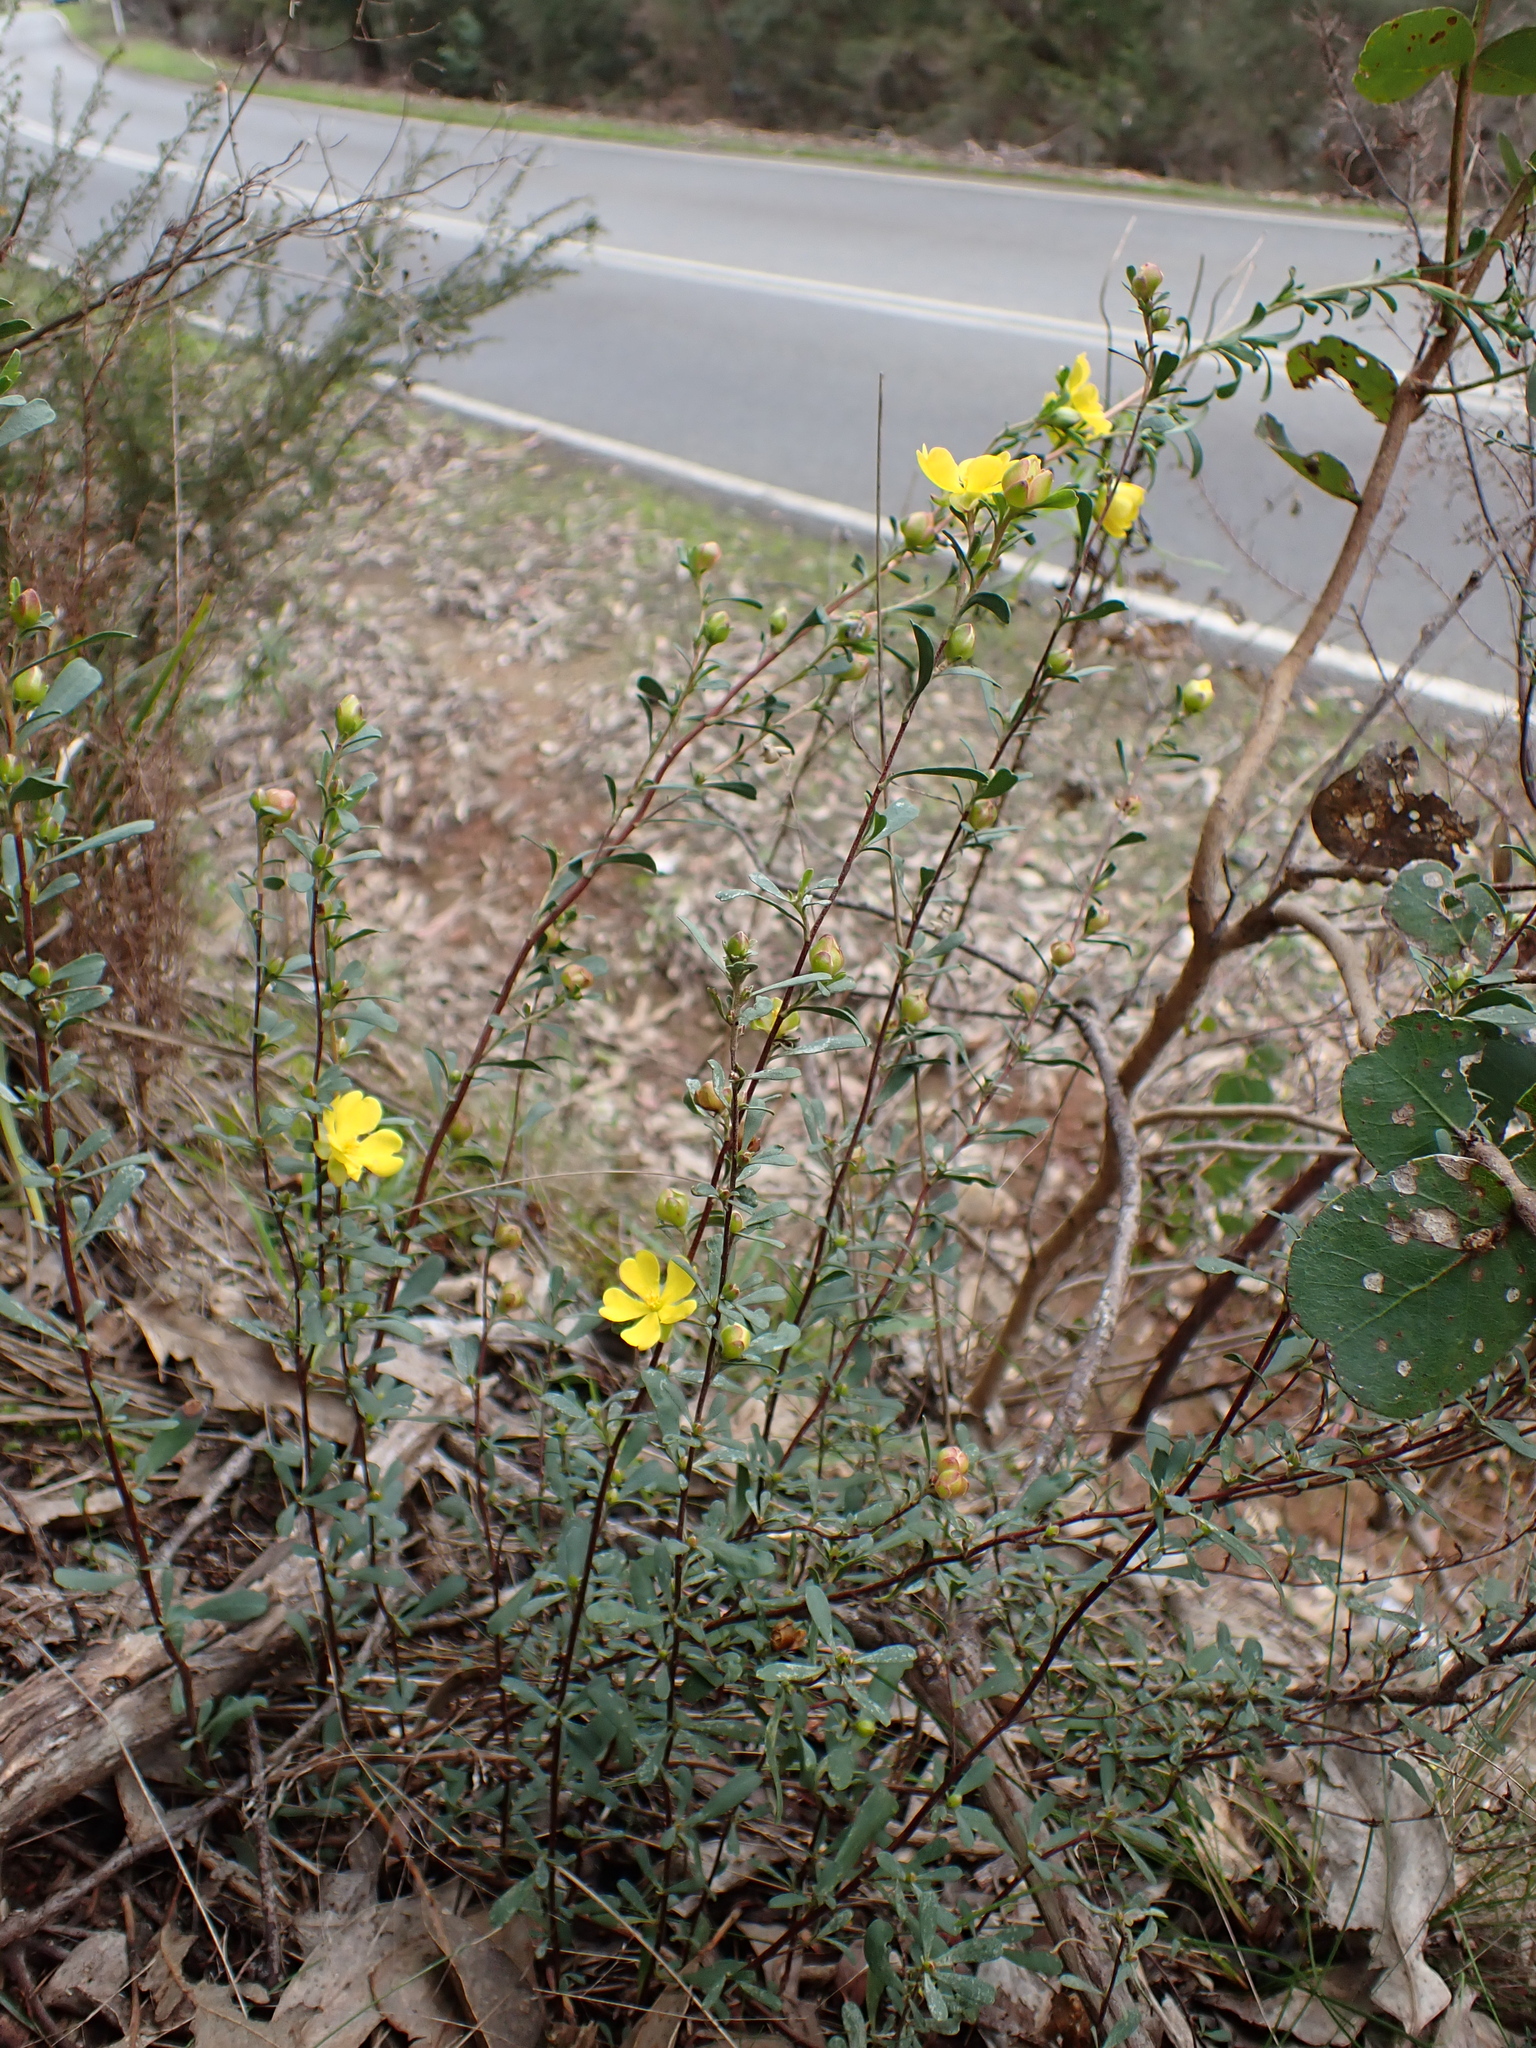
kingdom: Plantae
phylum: Tracheophyta
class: Magnoliopsida
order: Dilleniales
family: Dilleniaceae
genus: Hibbertia
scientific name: Hibbertia obtusifolia
